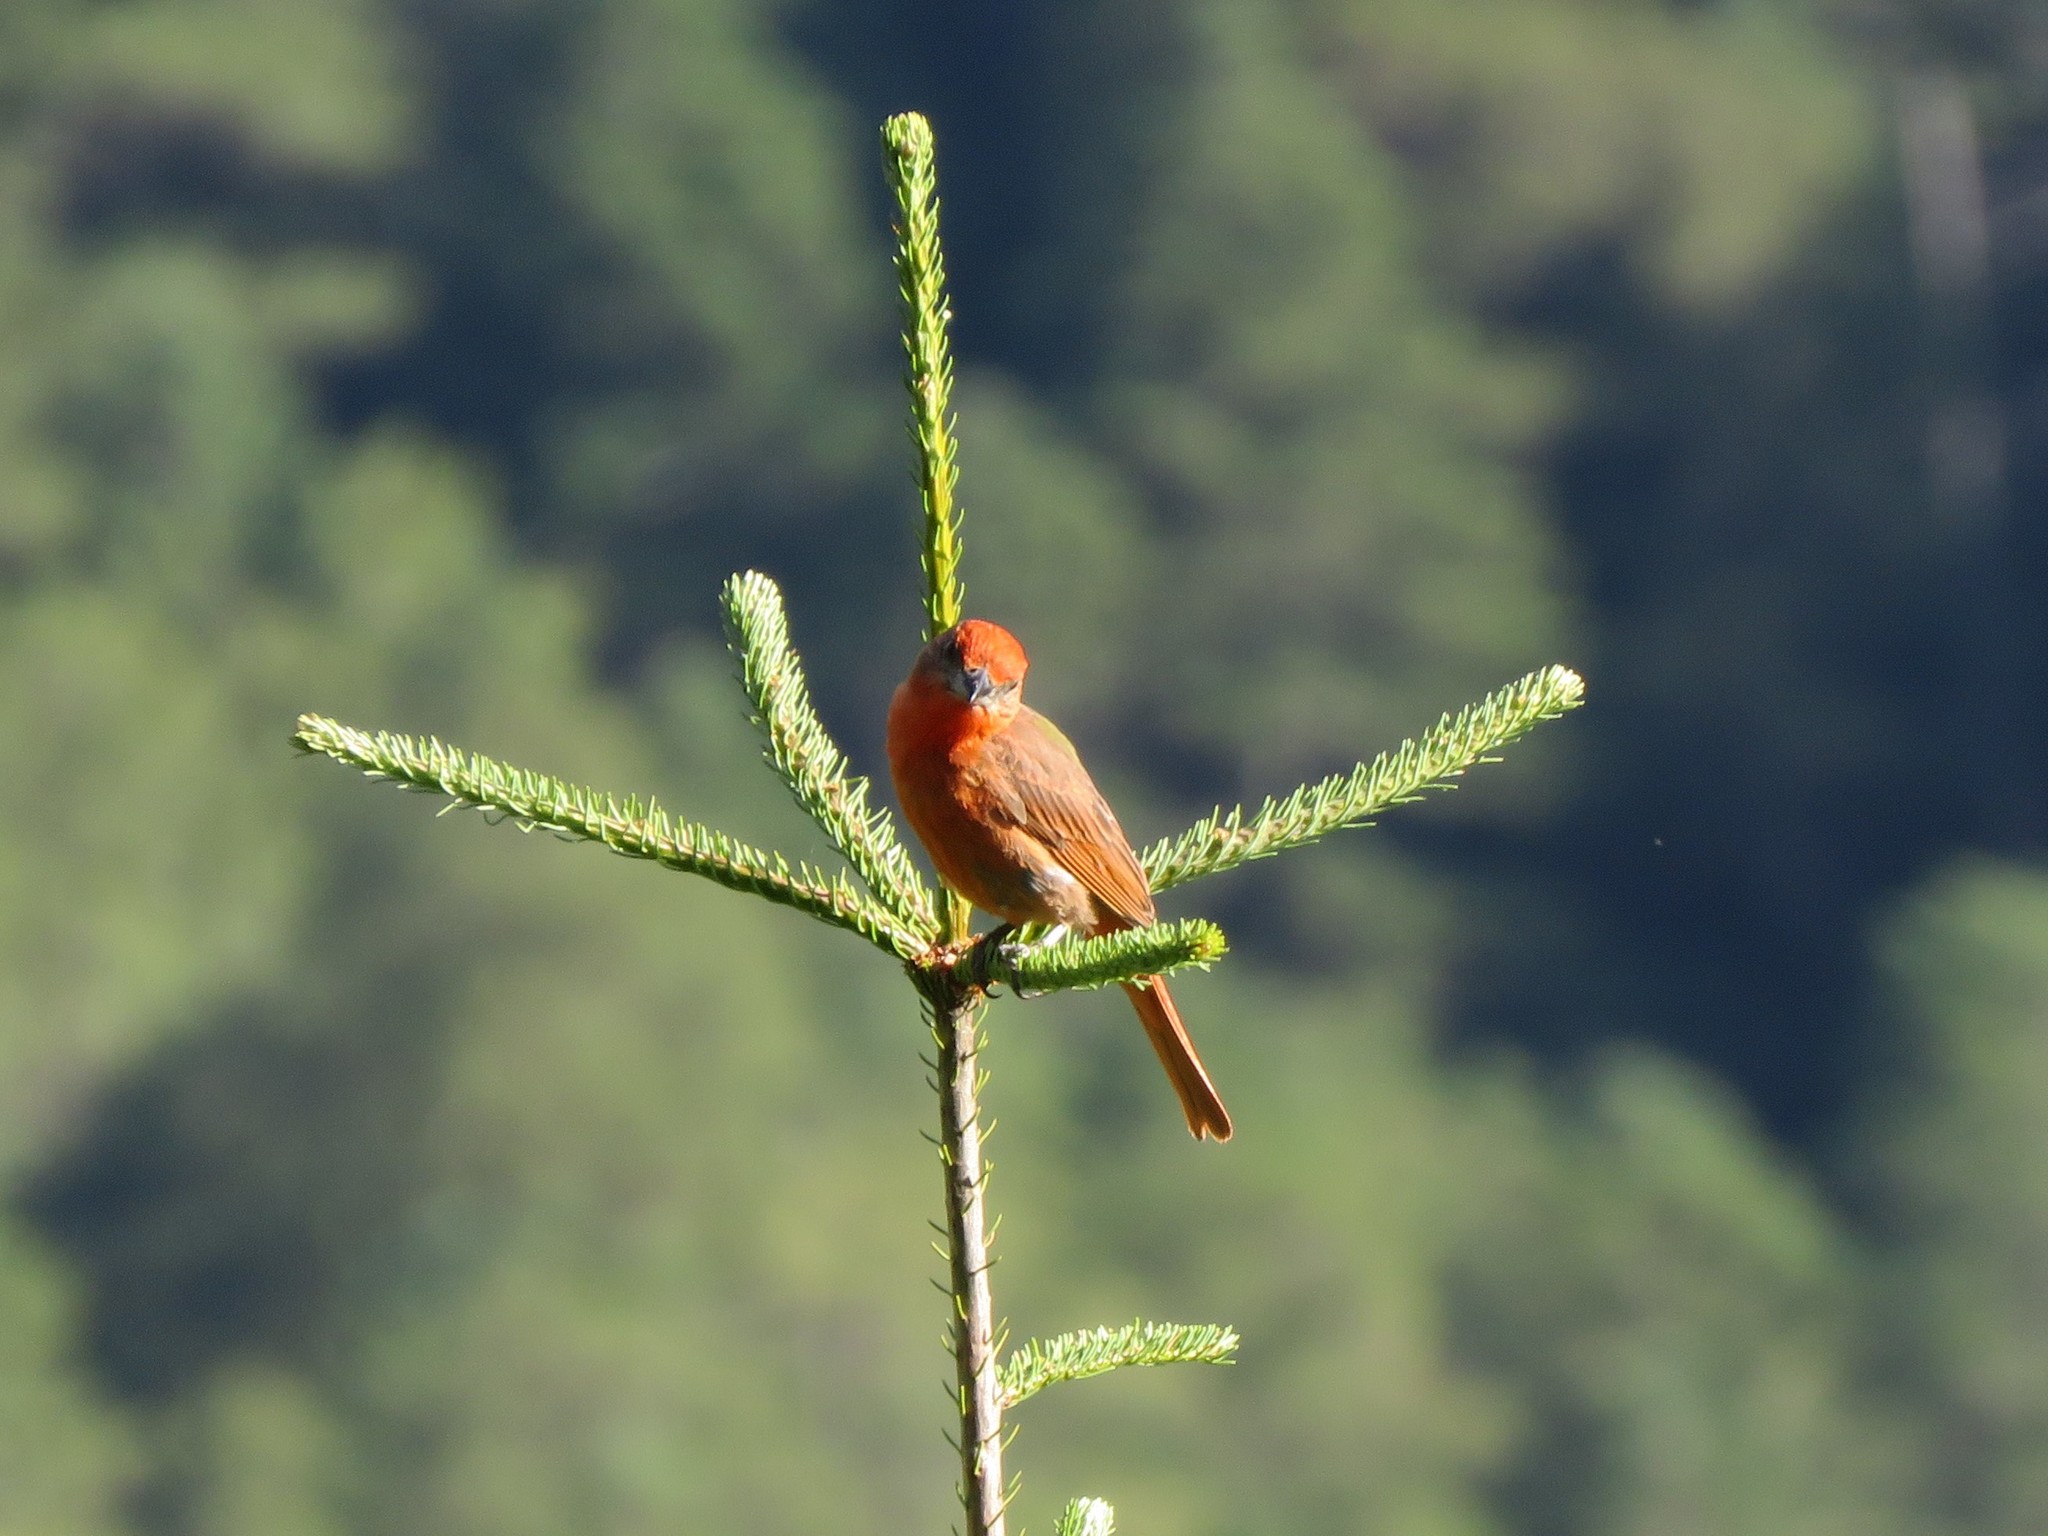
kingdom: Animalia
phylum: Chordata
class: Aves
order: Passeriformes
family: Cardinalidae
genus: Piranga
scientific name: Piranga flava
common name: Red tanager
